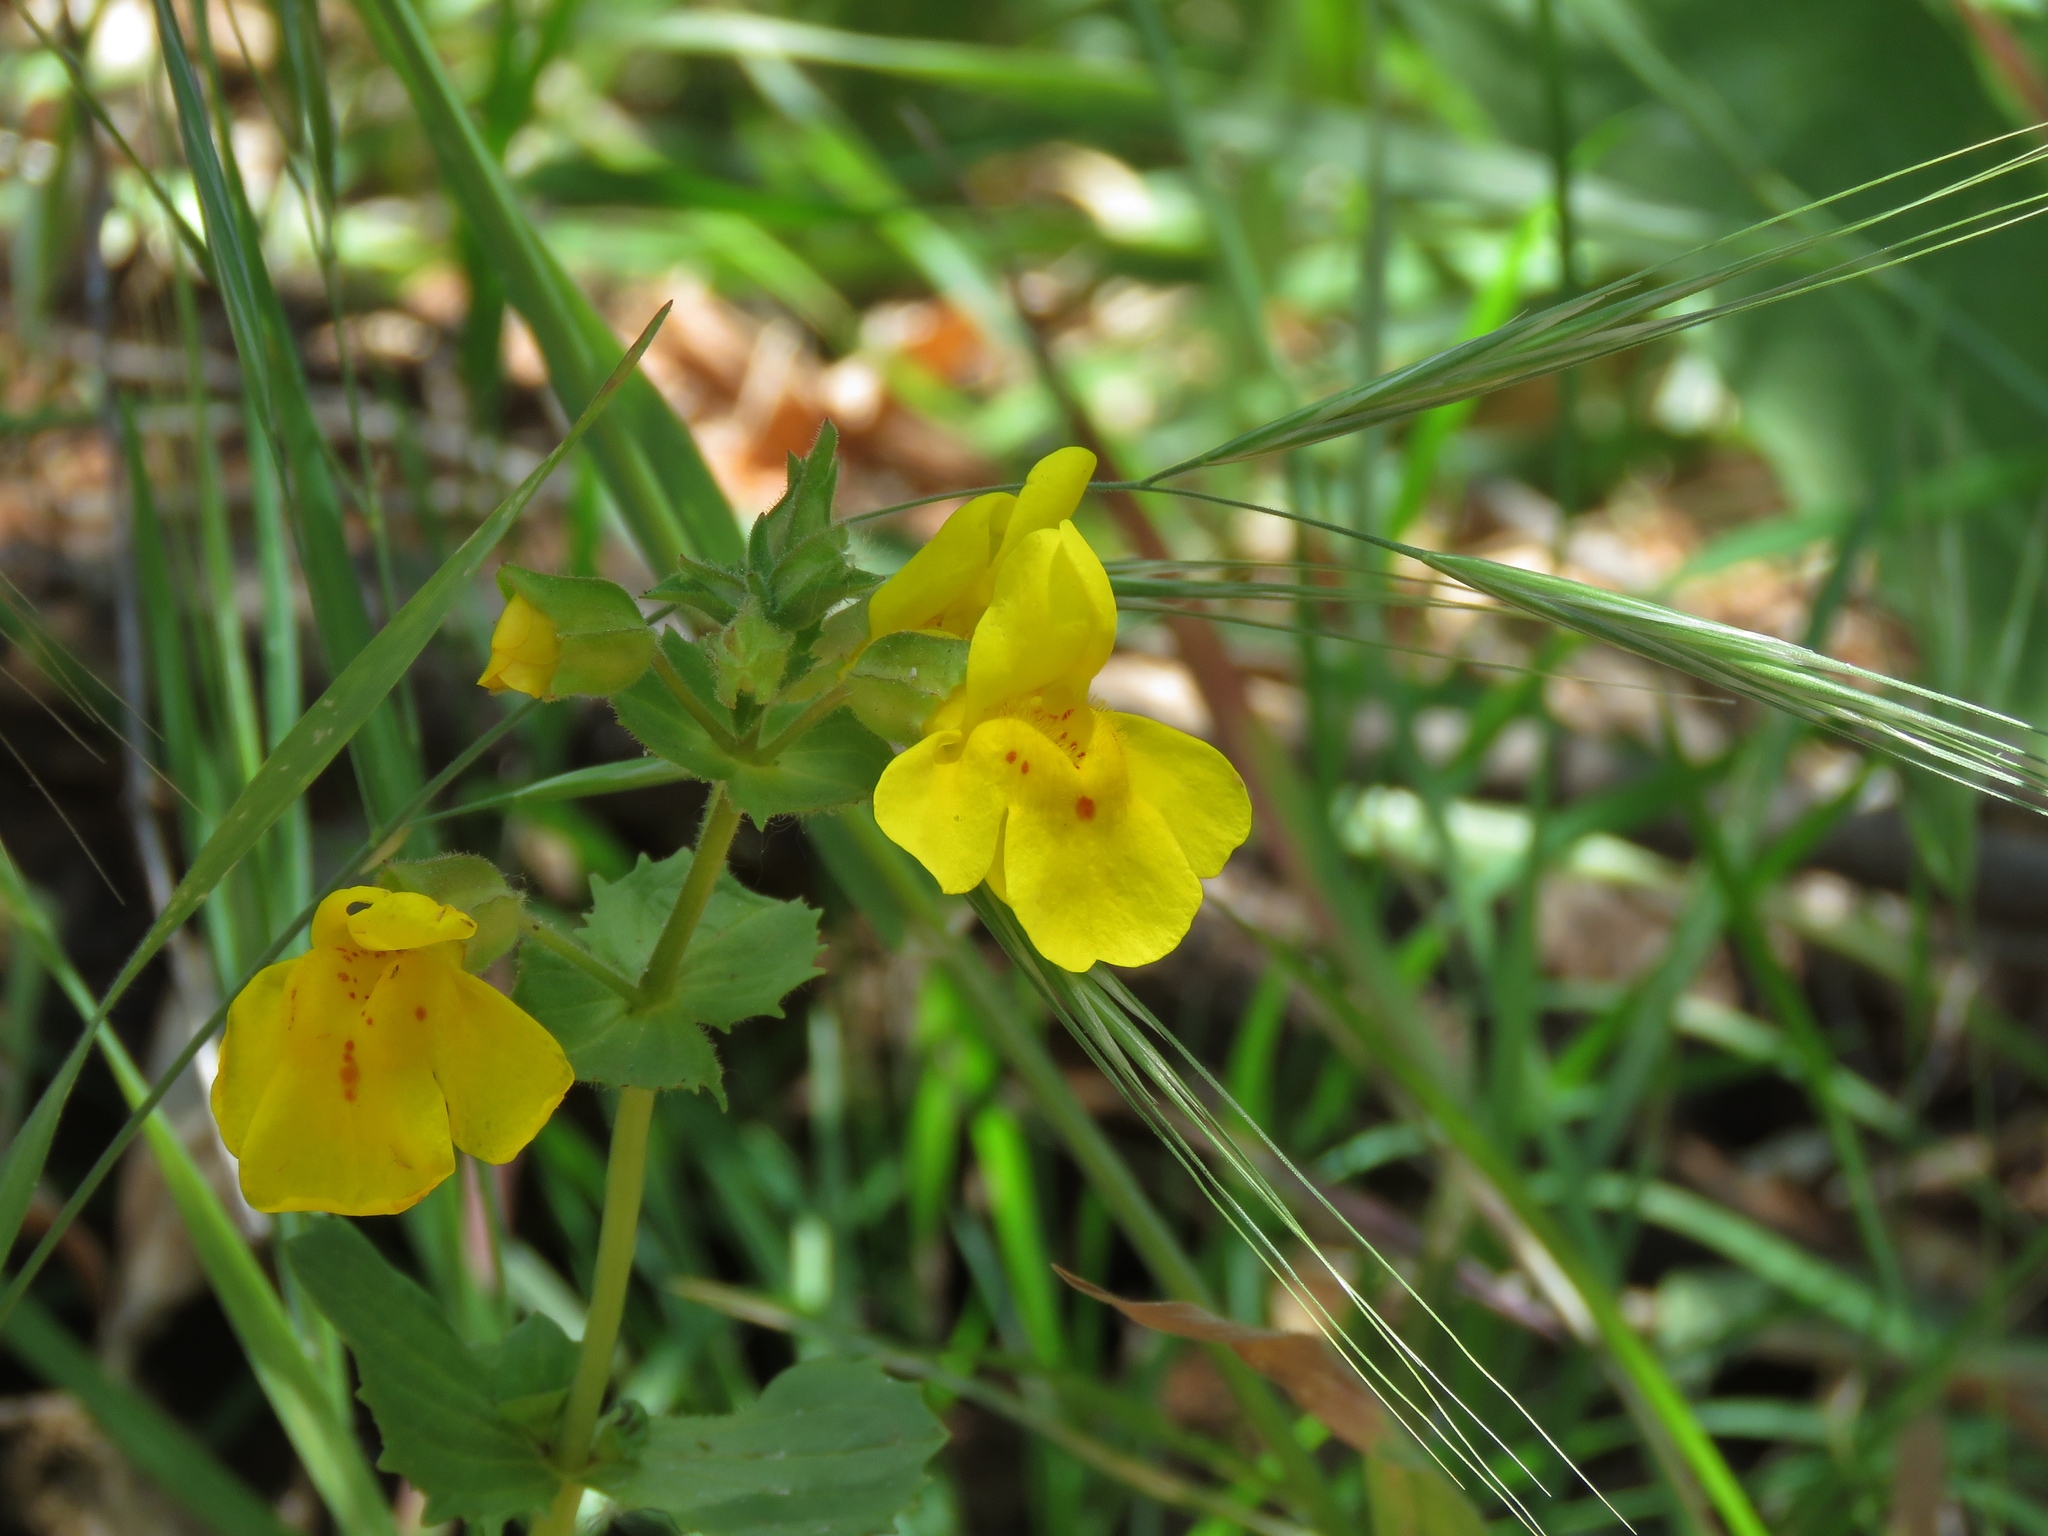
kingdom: Plantae
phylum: Tracheophyta
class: Magnoliopsida
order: Lamiales
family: Phrymaceae
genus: Erythranthe
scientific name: Erythranthe guttata
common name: Monkeyflower
